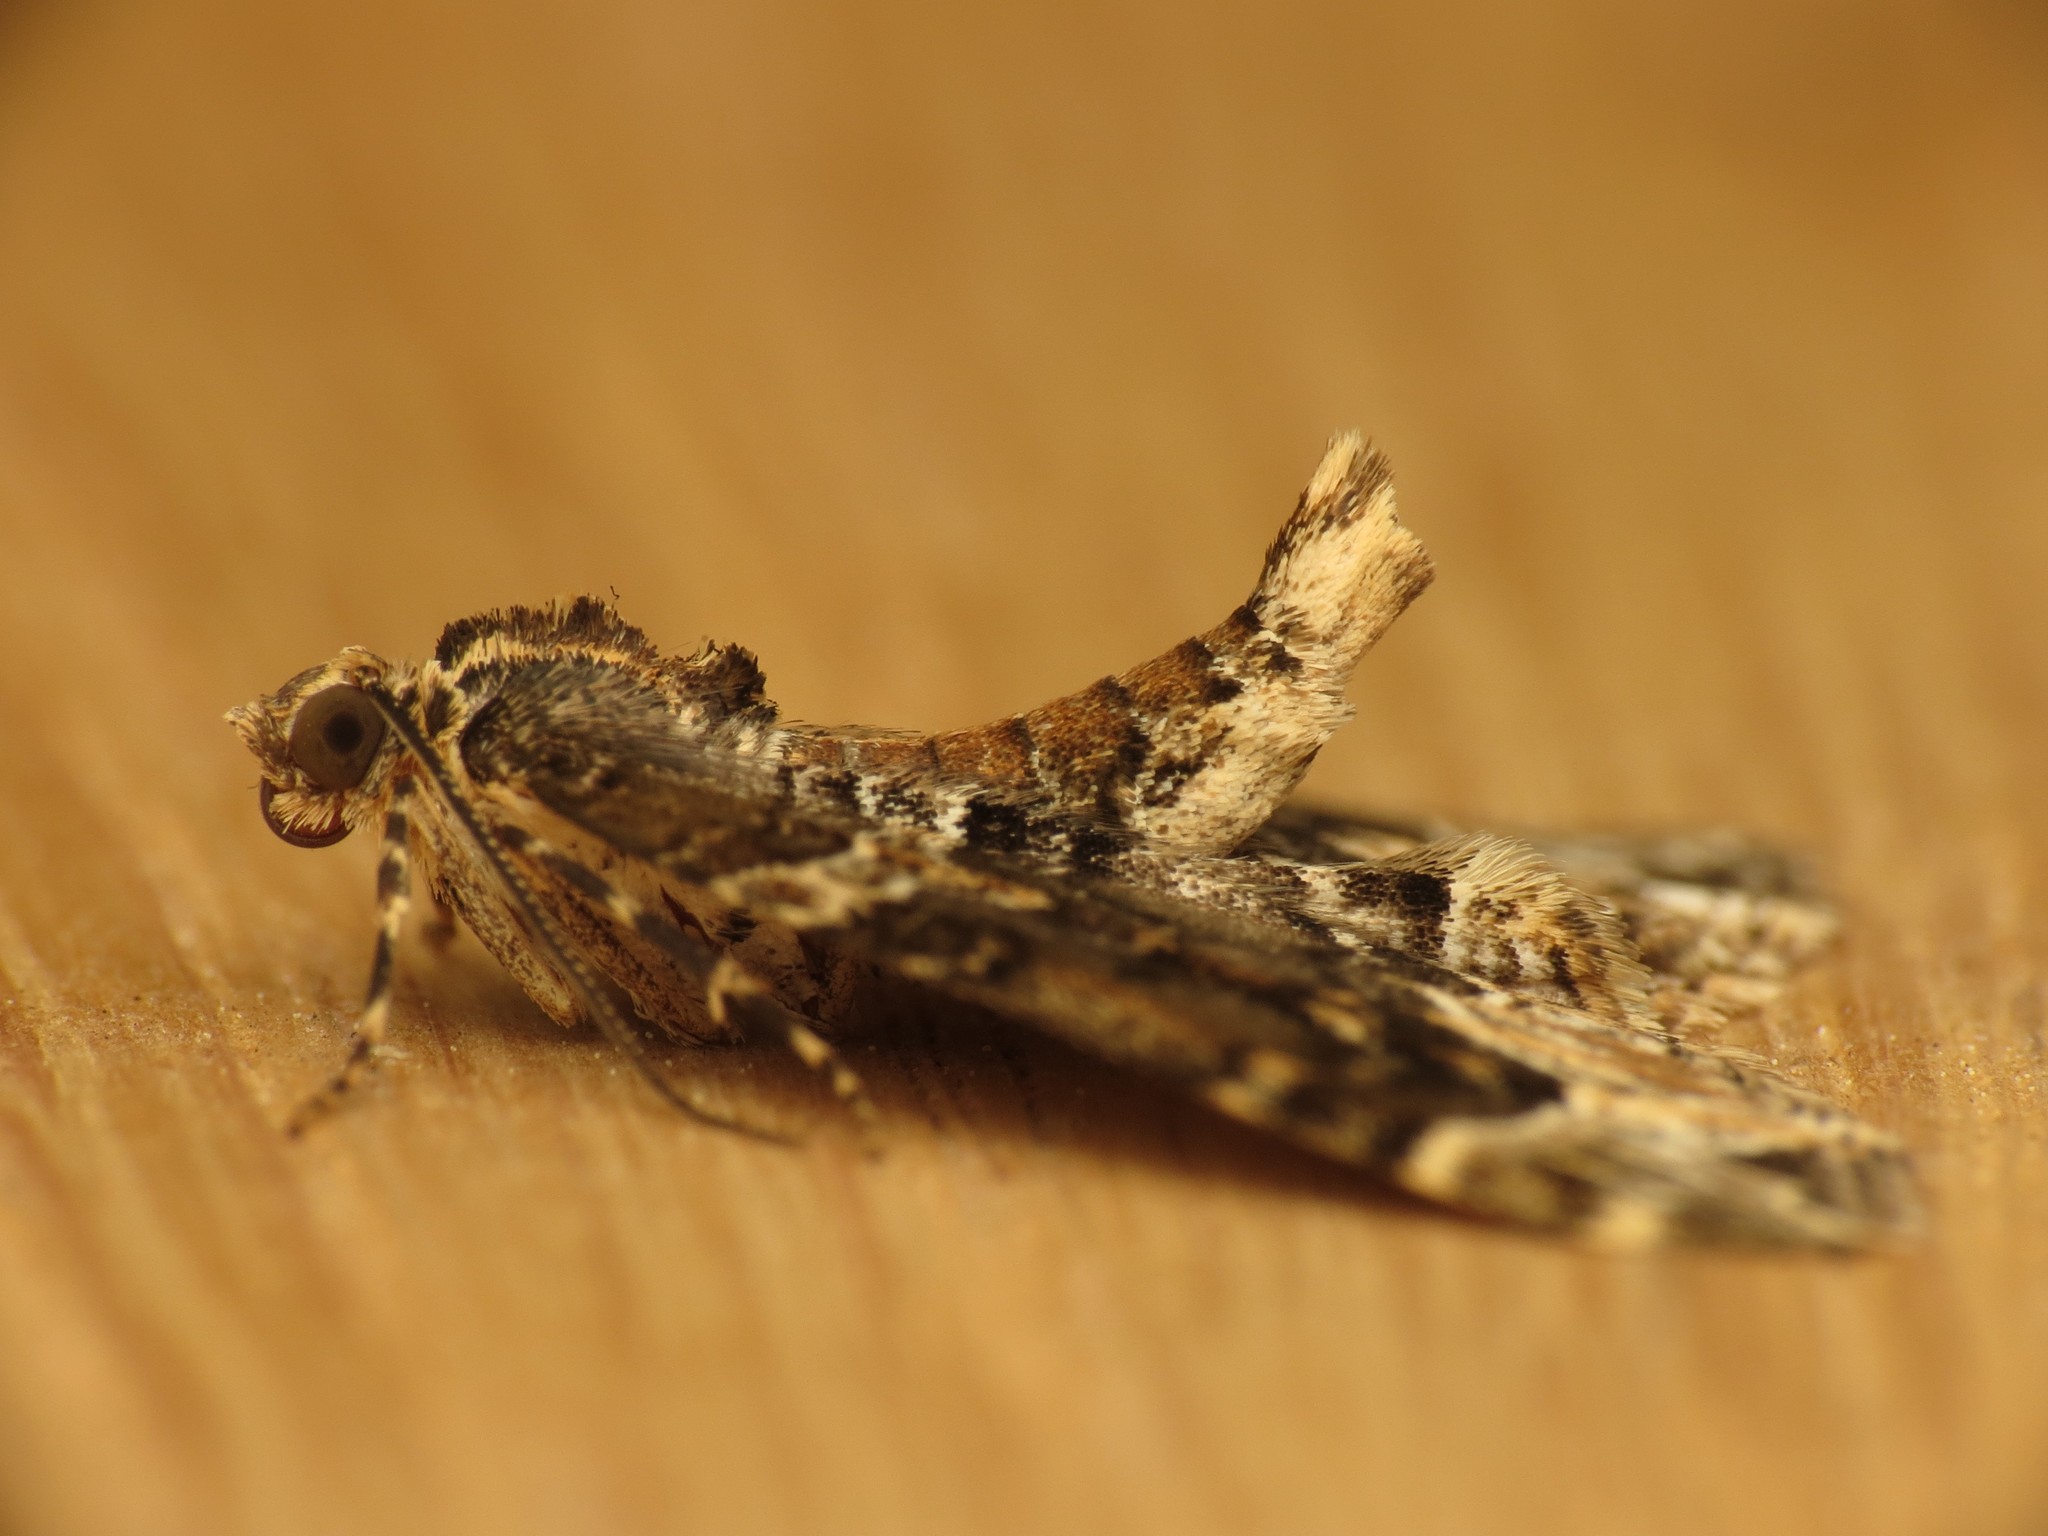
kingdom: Animalia
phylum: Arthropoda
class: Insecta
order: Lepidoptera
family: Geometridae
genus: Ecliptopera
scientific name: Ecliptopera silaceata
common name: Small phoenix
